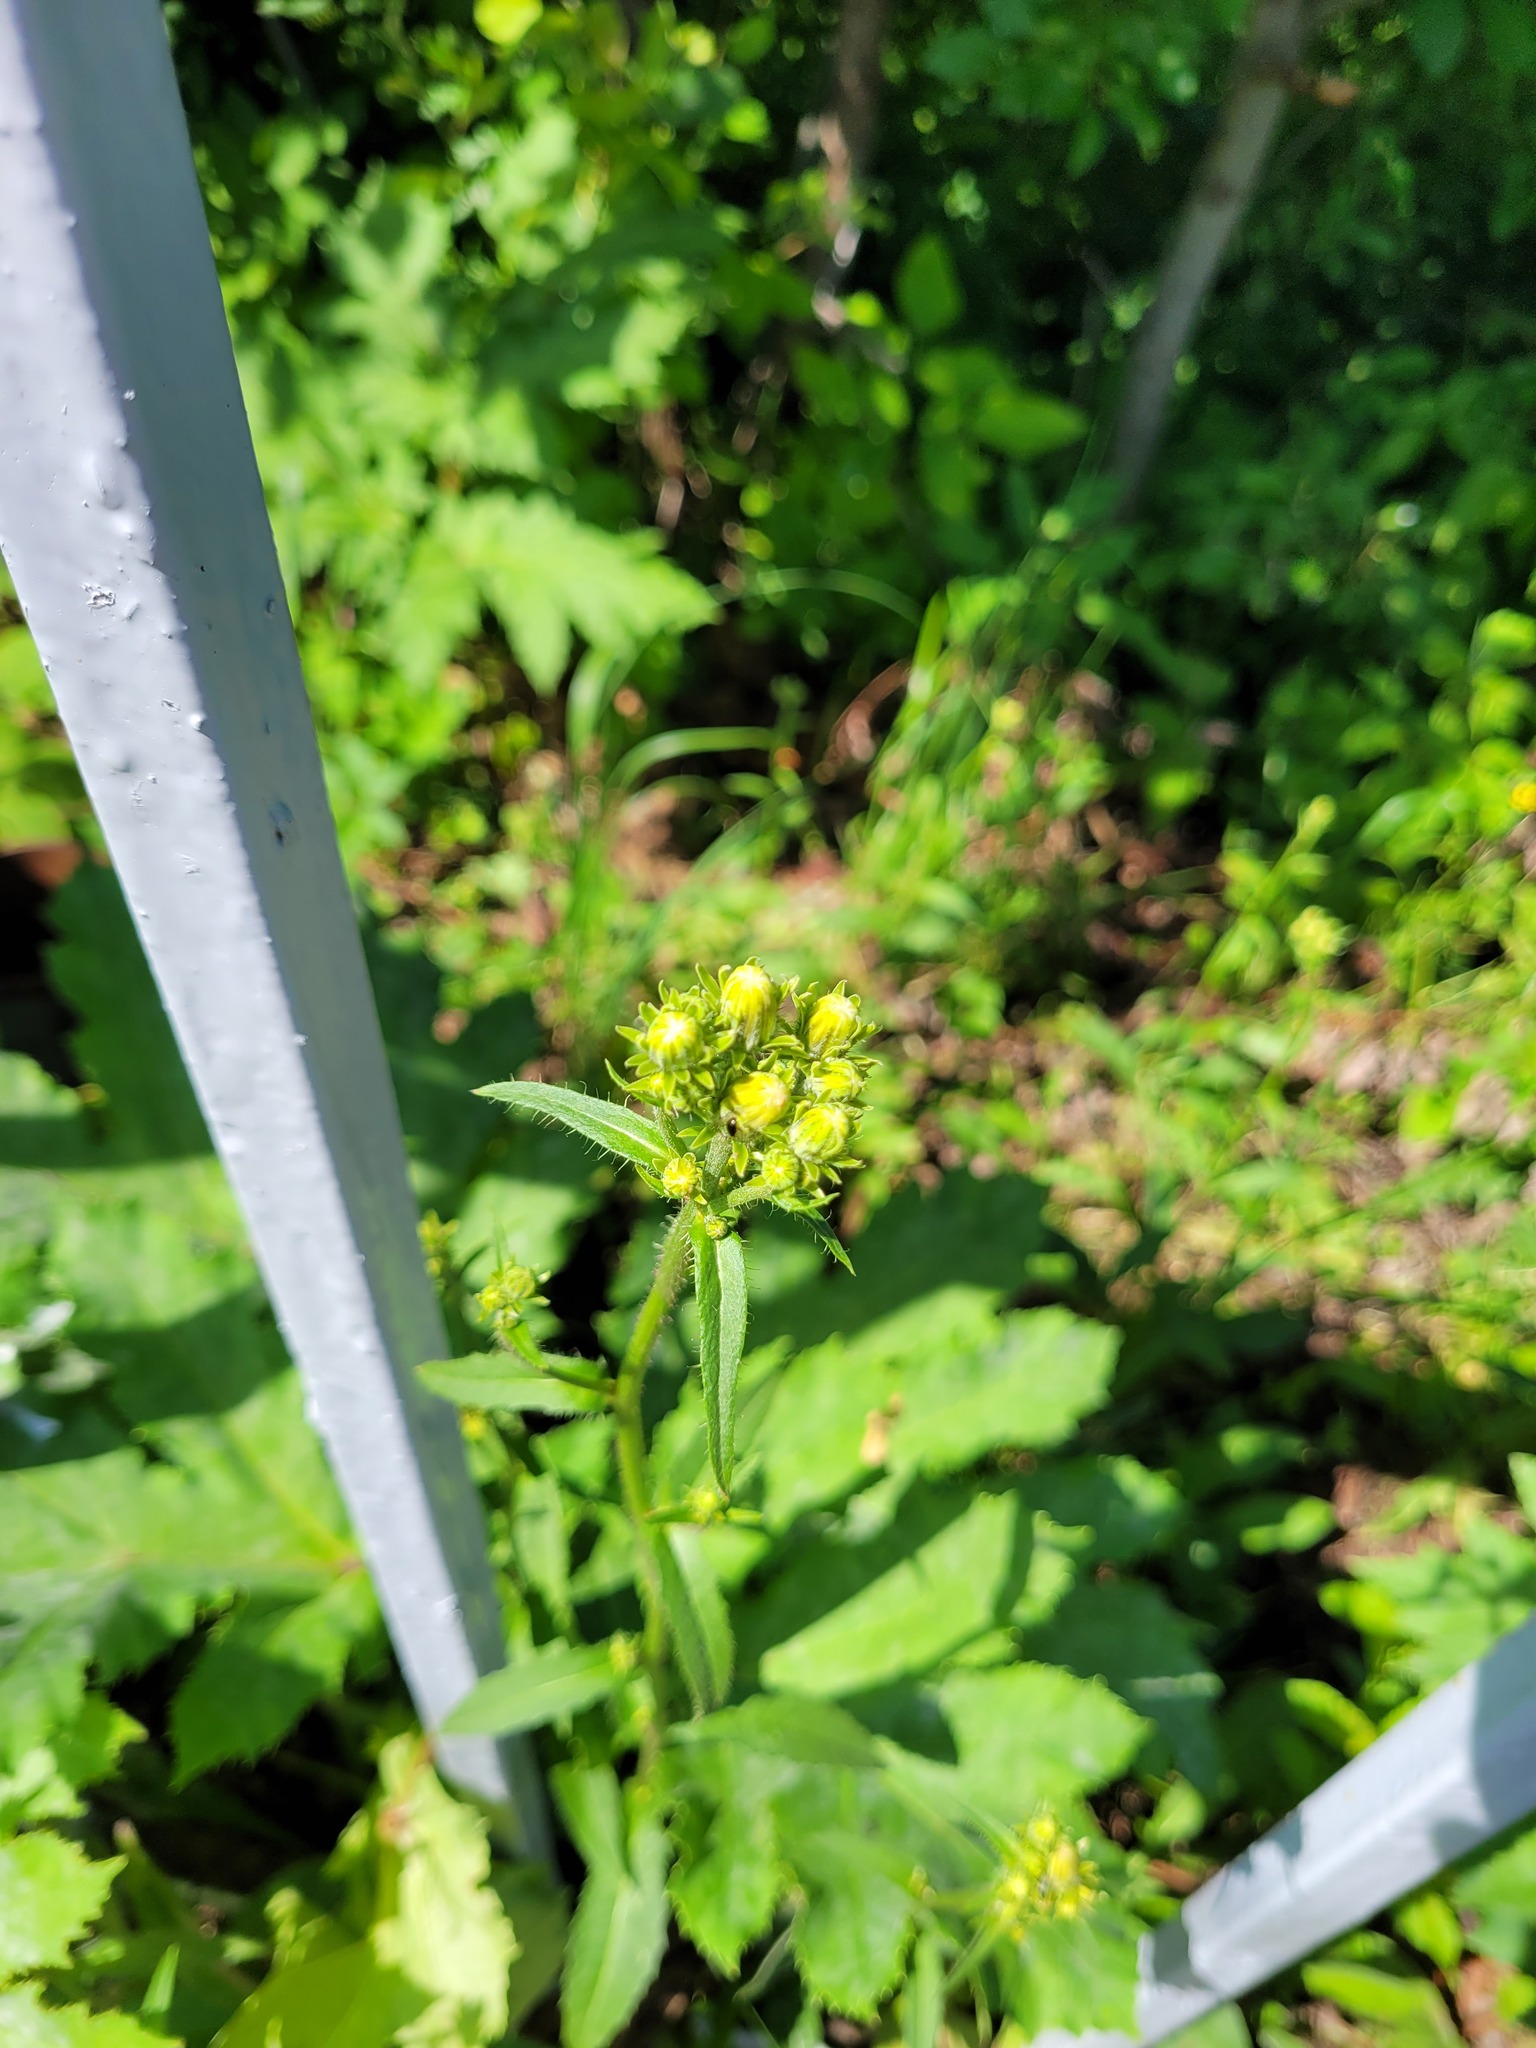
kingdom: Plantae
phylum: Tracheophyta
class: Magnoliopsida
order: Asterales
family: Asteraceae
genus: Picris
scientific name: Picris hieracioides
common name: Hawkweed oxtongue
